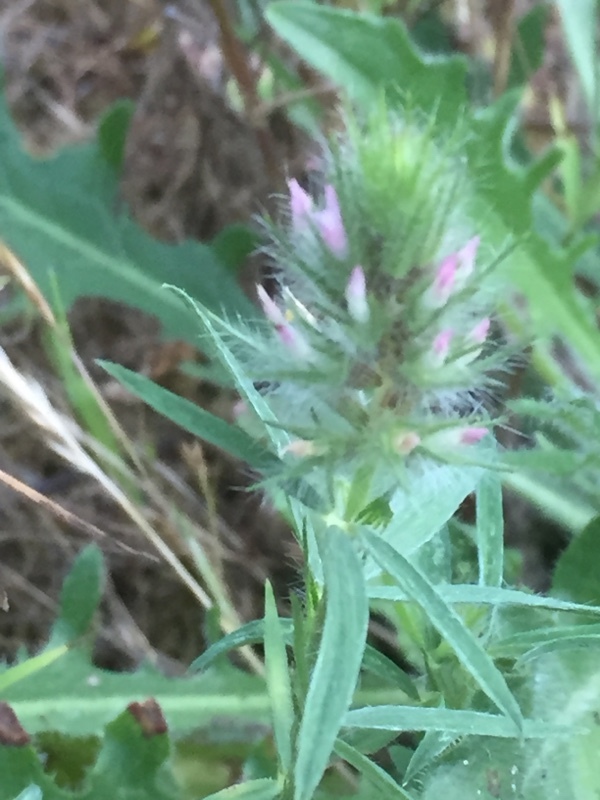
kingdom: Plantae
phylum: Tracheophyta
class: Magnoliopsida
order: Fabales
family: Fabaceae
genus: Trifolium
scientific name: Trifolium angustifolium
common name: Narrow clover
